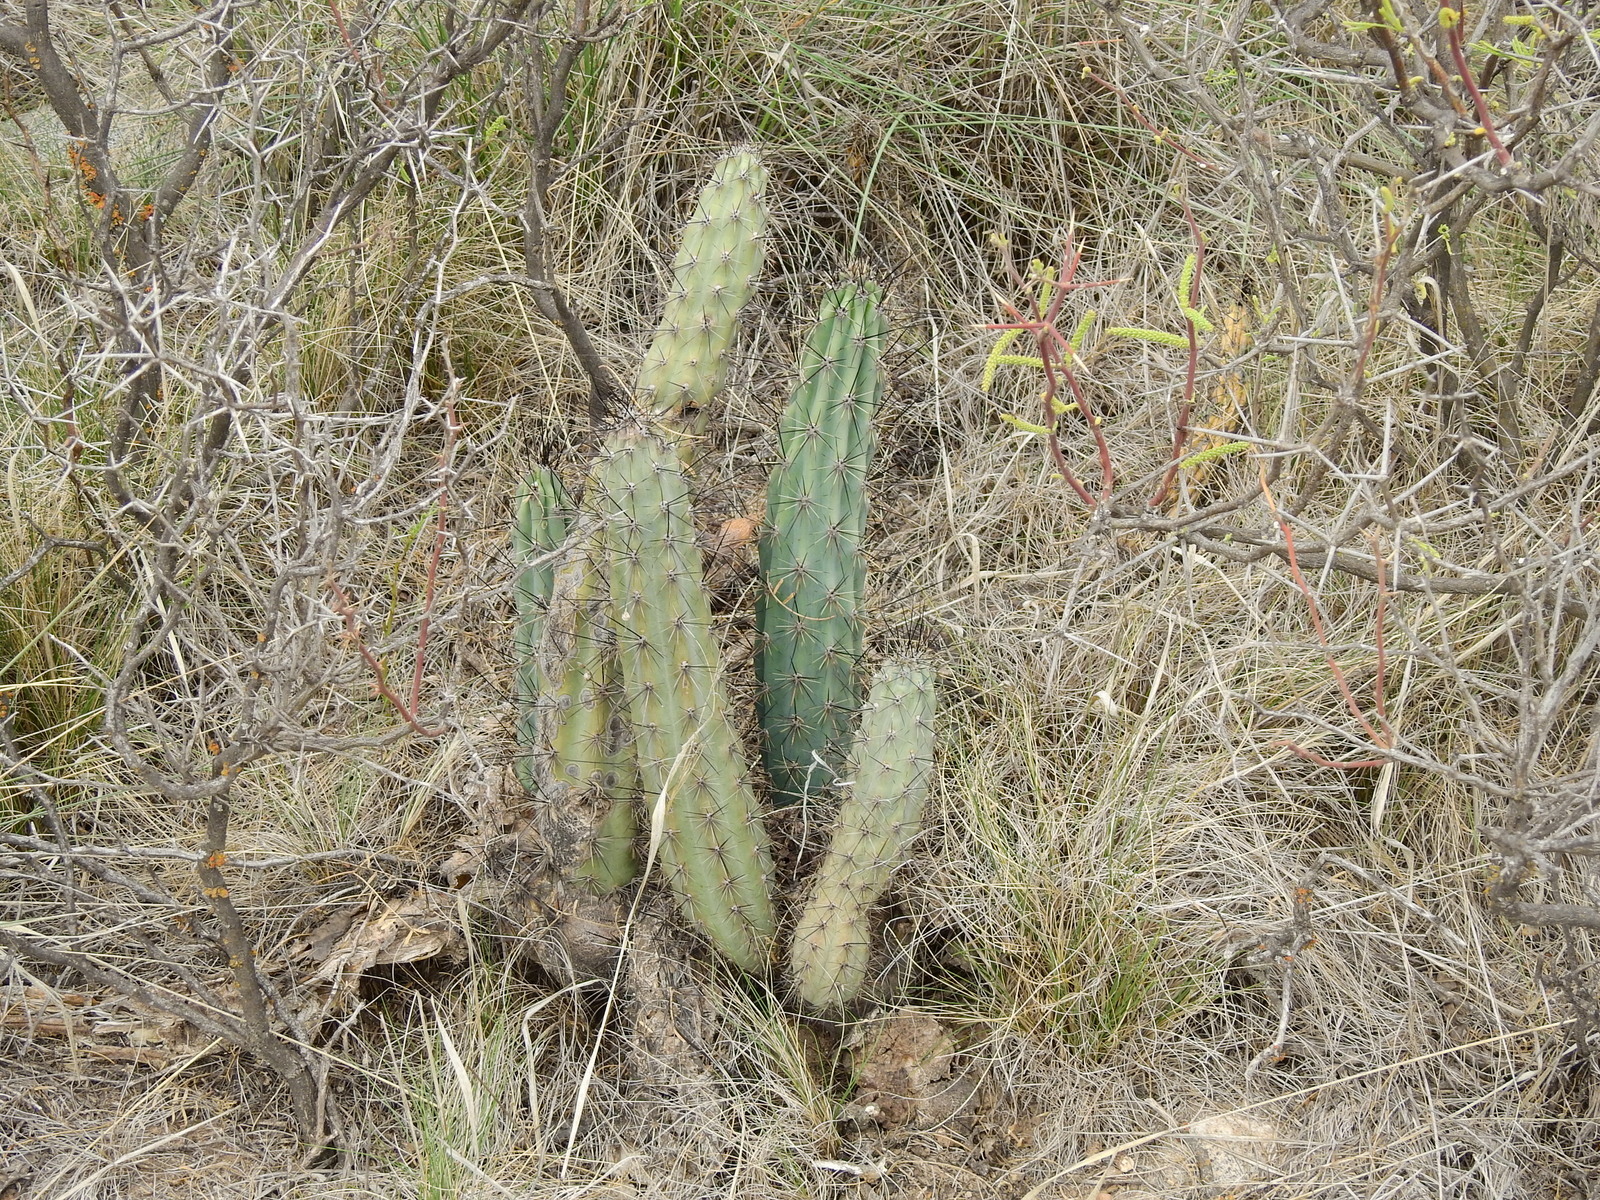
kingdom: Plantae
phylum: Tracheophyta
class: Magnoliopsida
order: Caryophyllales
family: Cactaceae
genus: Cereus
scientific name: Cereus aethiops
